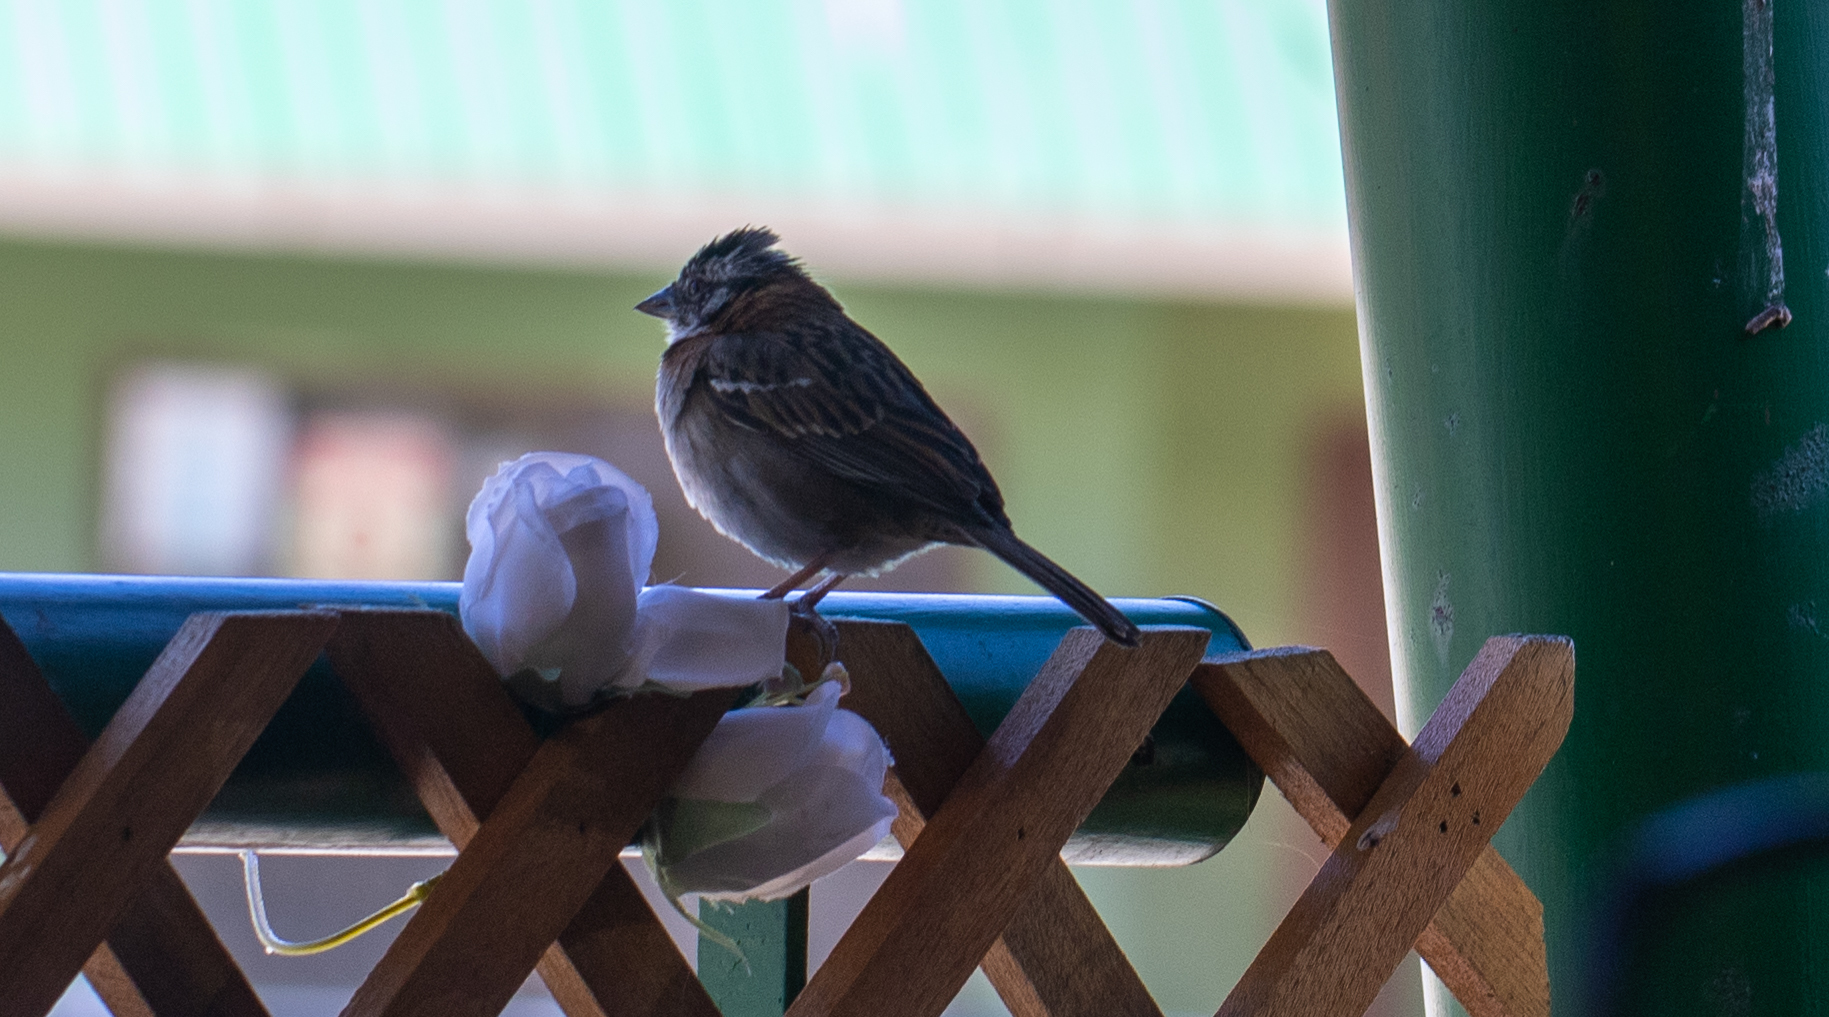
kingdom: Animalia
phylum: Chordata
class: Aves
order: Passeriformes
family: Passerellidae
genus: Zonotrichia
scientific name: Zonotrichia capensis
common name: Rufous-collared sparrow
